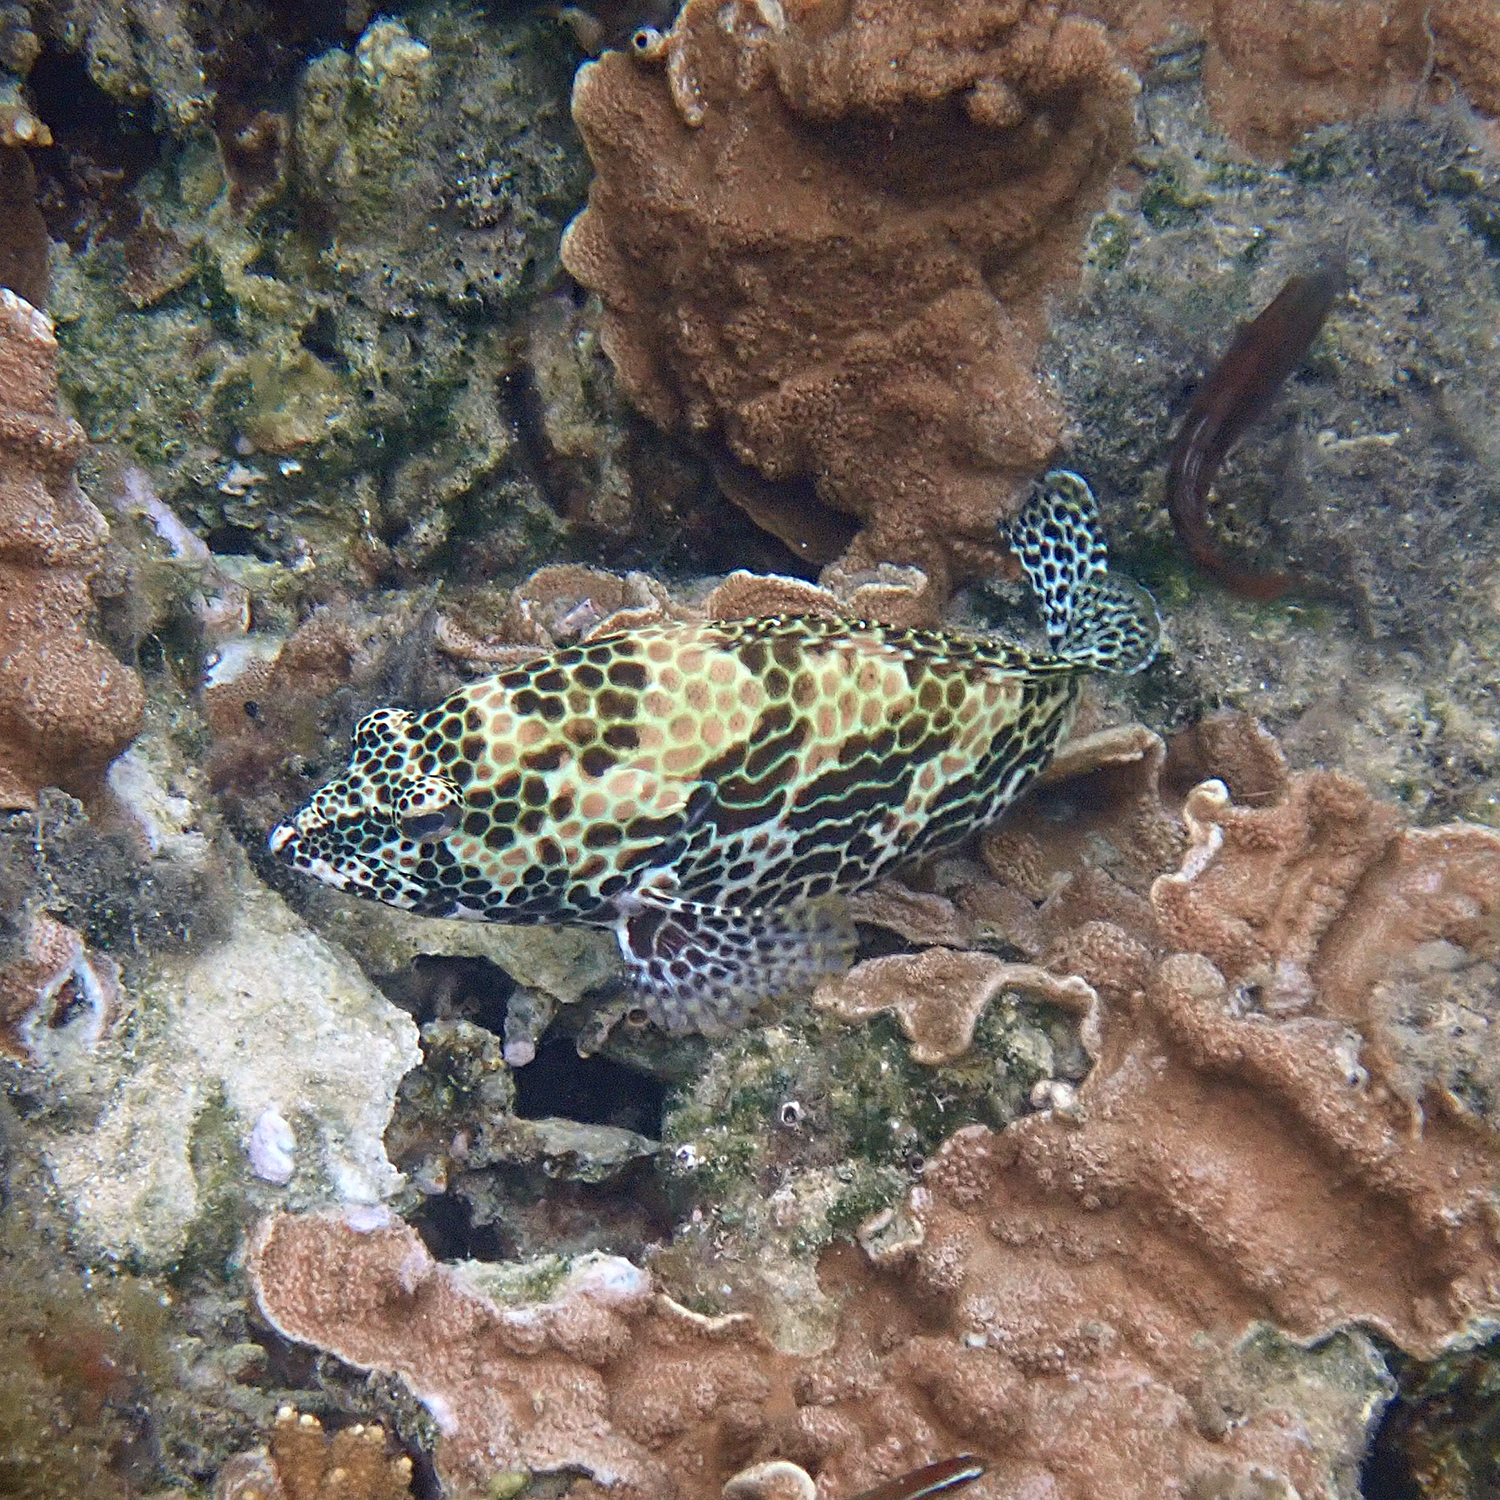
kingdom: Animalia
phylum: Chordata
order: Perciformes
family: Serranidae
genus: Epinephelus
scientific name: Epinephelus merra
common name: Honeycomb grouper
